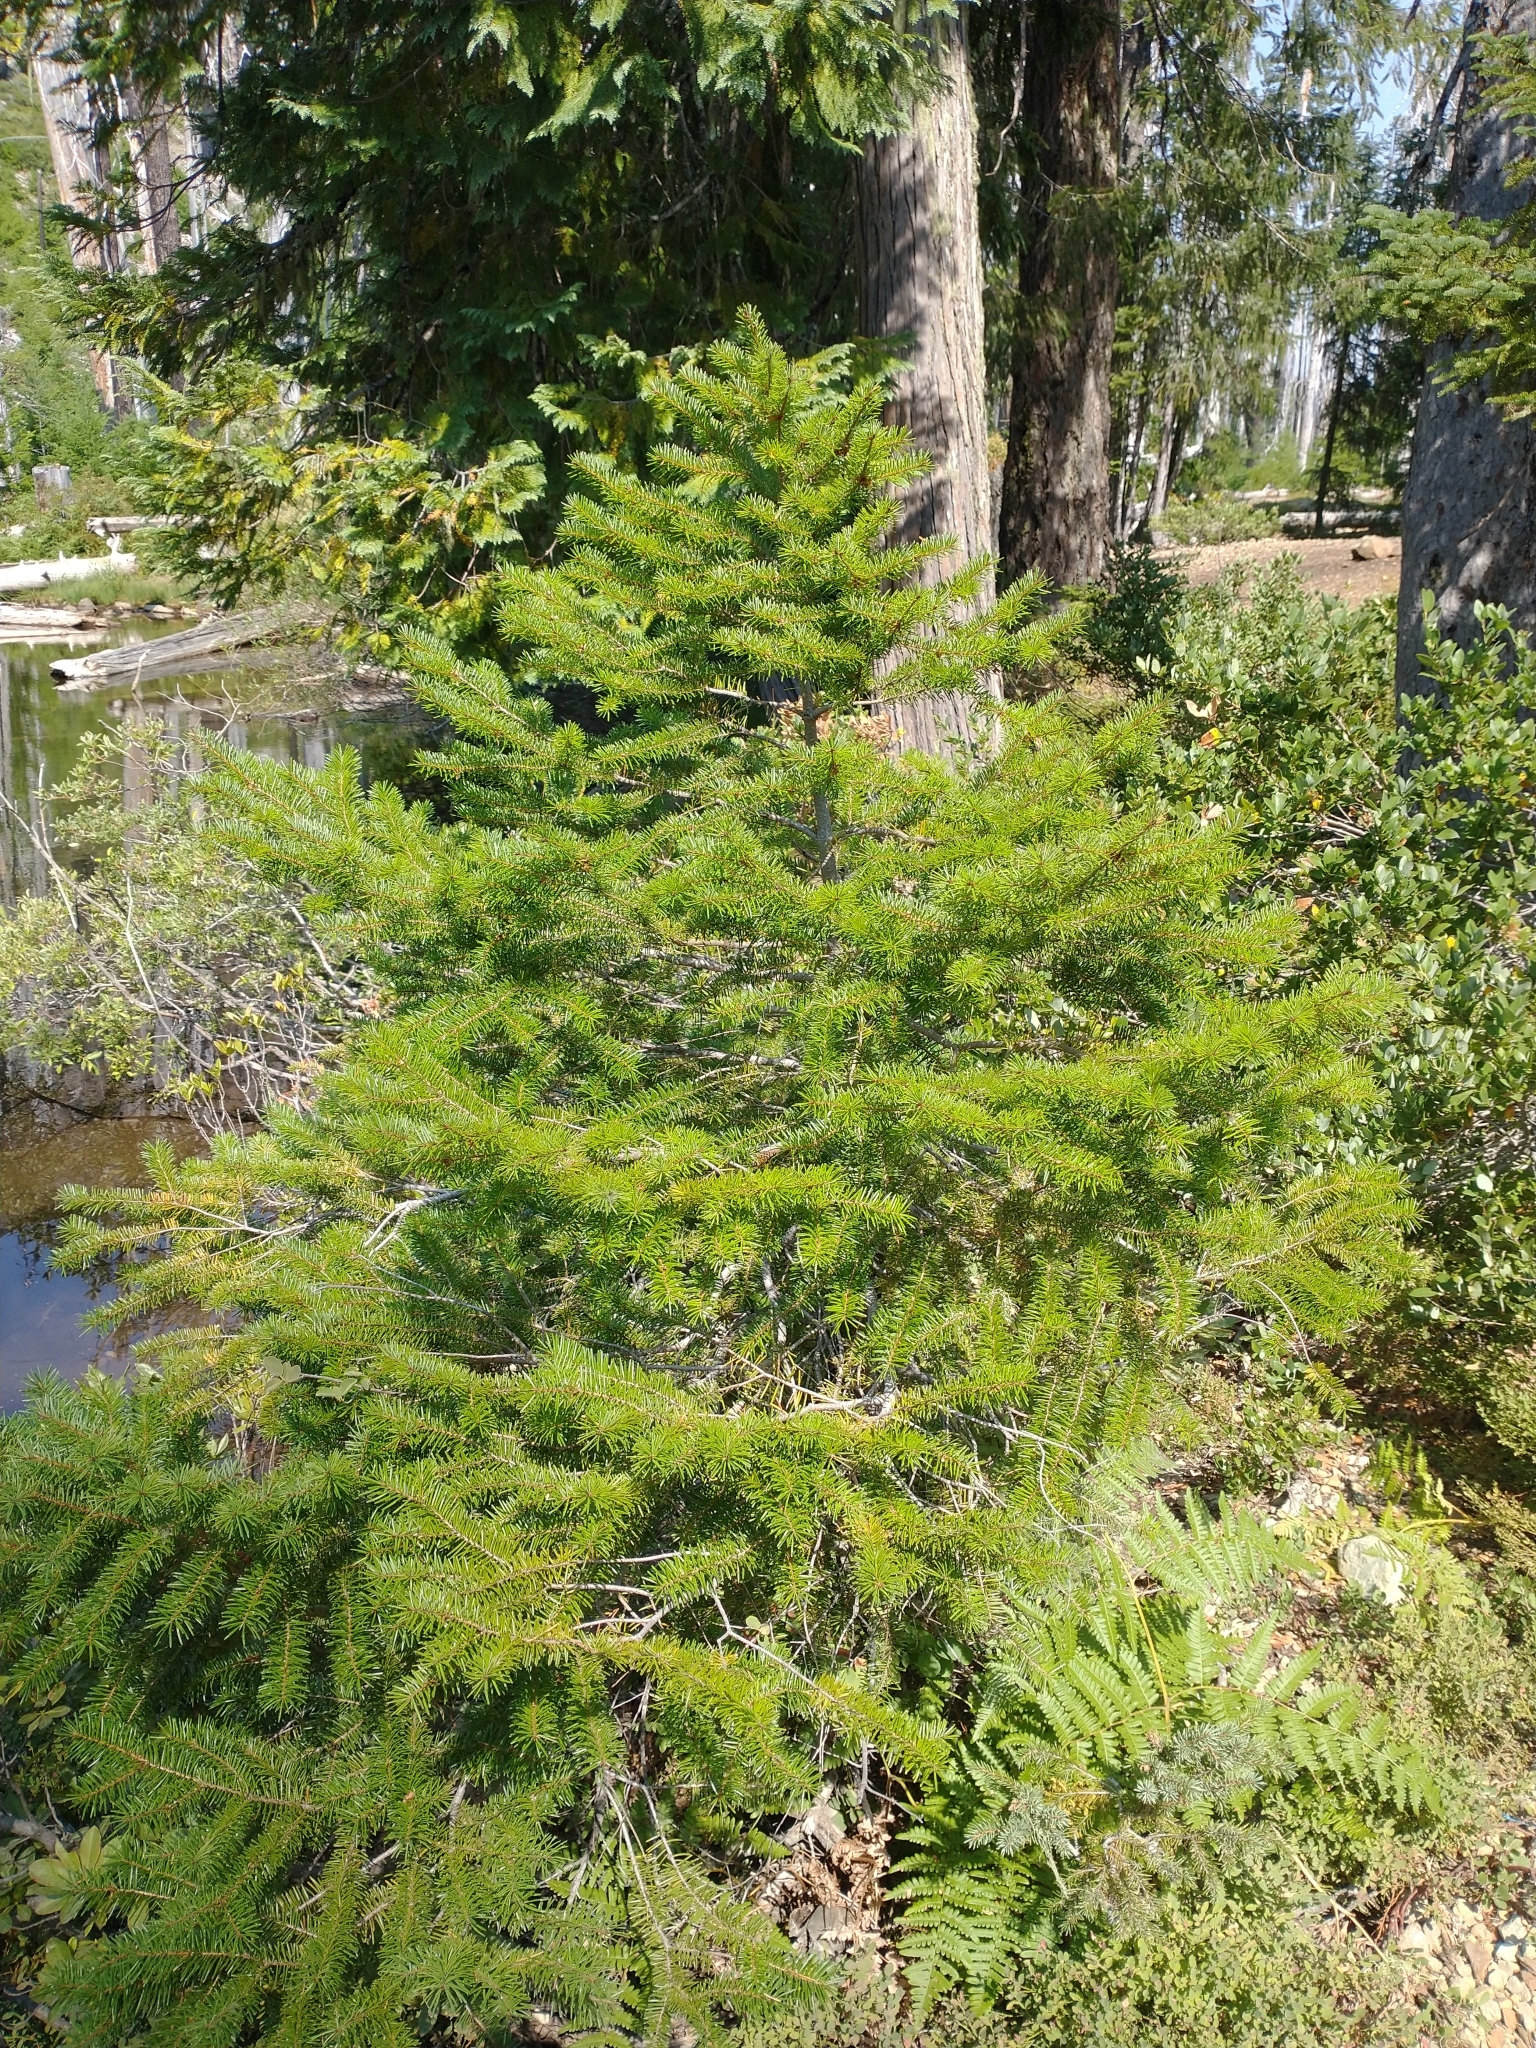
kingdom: Plantae
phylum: Tracheophyta
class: Pinopsida
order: Pinales
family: Pinaceae
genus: Pseudotsuga
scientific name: Pseudotsuga menziesii
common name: Douglas fir
